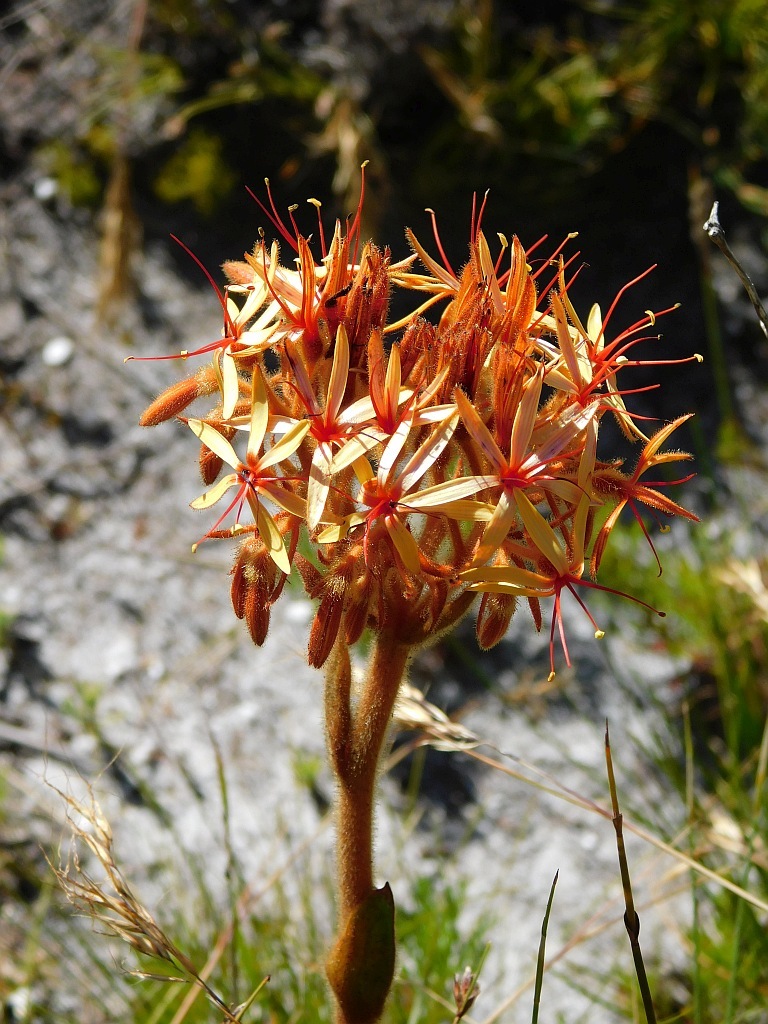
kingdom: Plantae
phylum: Tracheophyta
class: Liliopsida
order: Commelinales
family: Haemodoraceae
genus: Dilatris
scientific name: Dilatris viscosa
